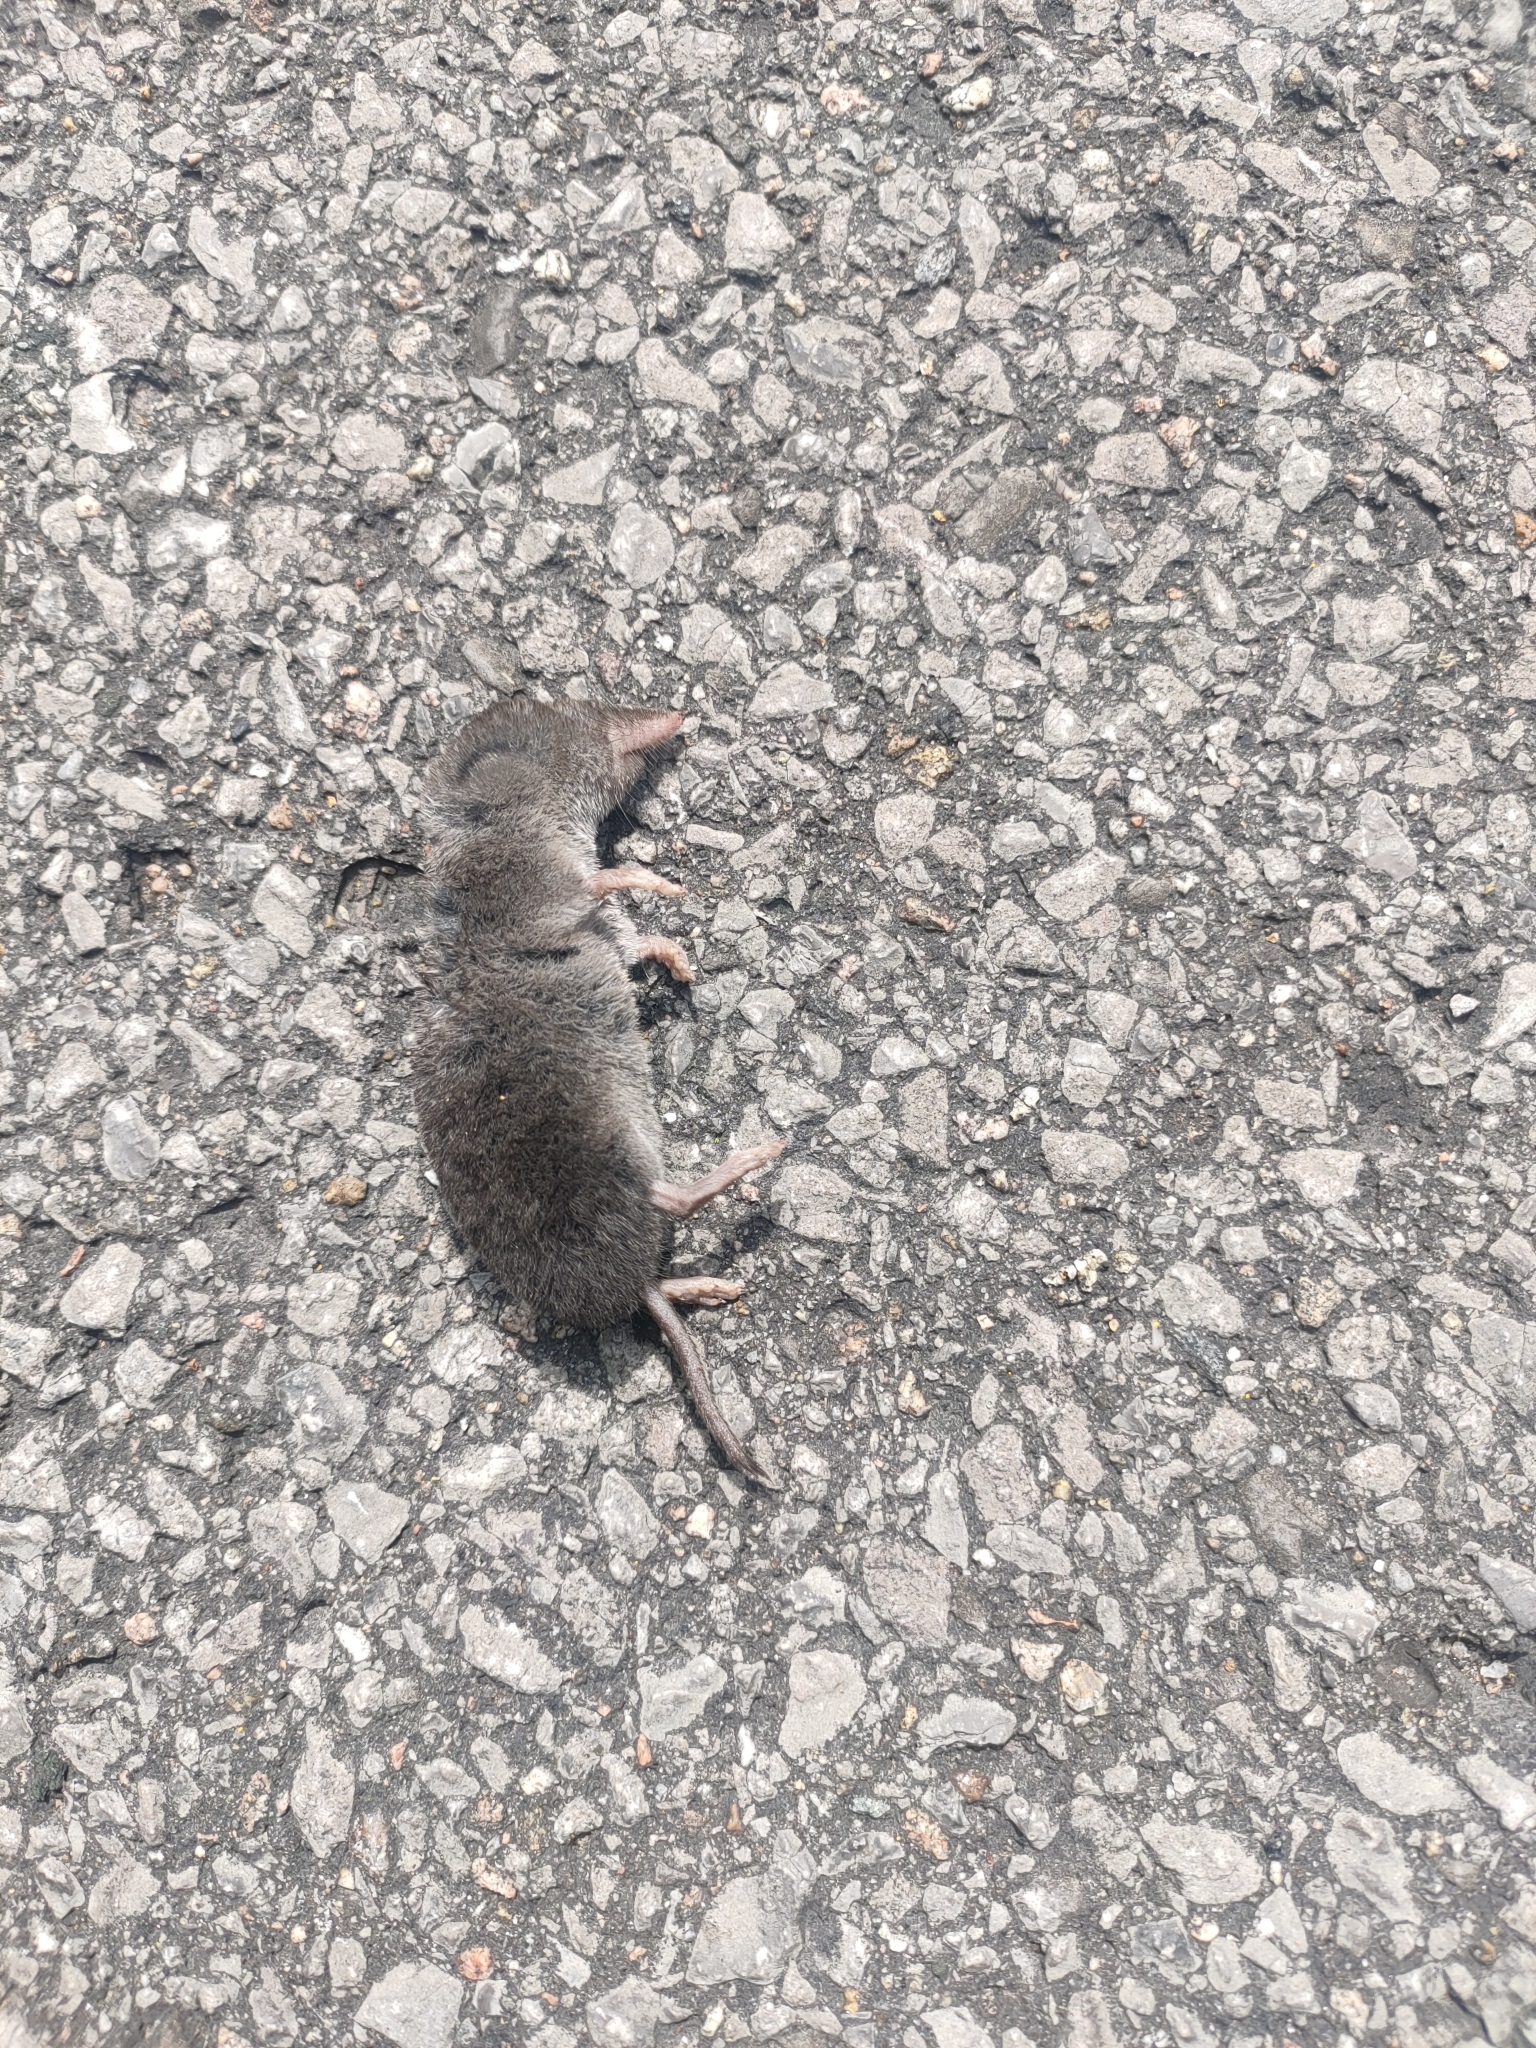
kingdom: Animalia
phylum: Chordata
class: Mammalia
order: Soricomorpha
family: Soricidae
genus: Blarina
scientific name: Blarina brevicauda
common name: Northern short-tailed shrew
